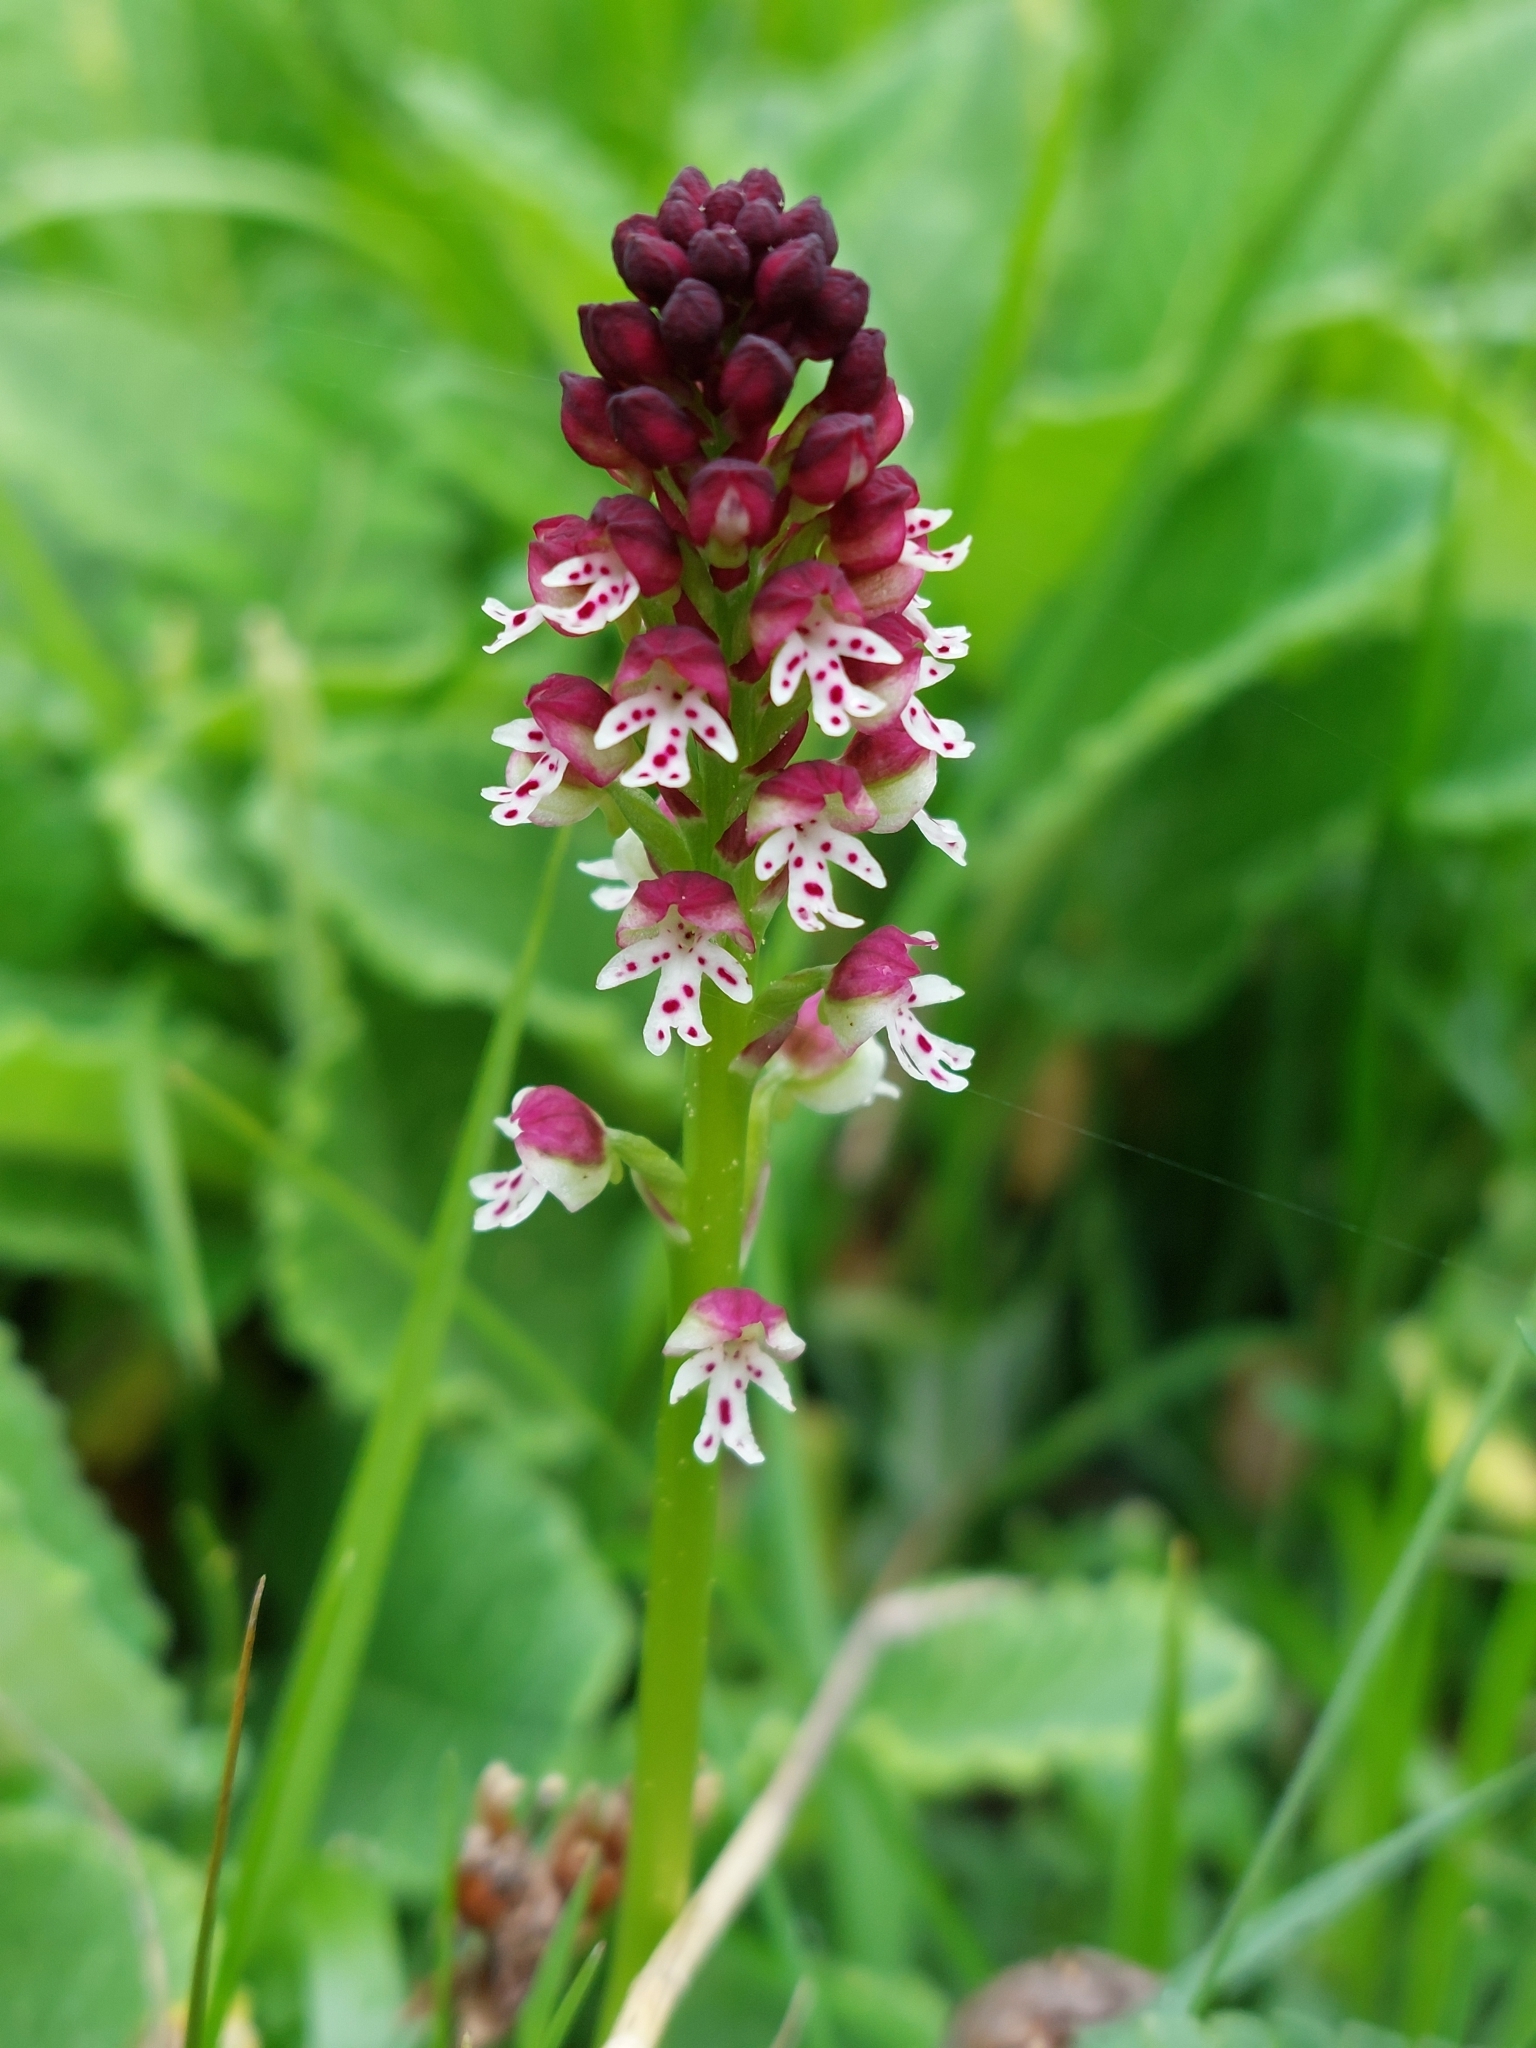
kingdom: Plantae
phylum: Tracheophyta
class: Liliopsida
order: Asparagales
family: Orchidaceae
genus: Neotinea
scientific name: Neotinea ustulata
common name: Burnt orchid
